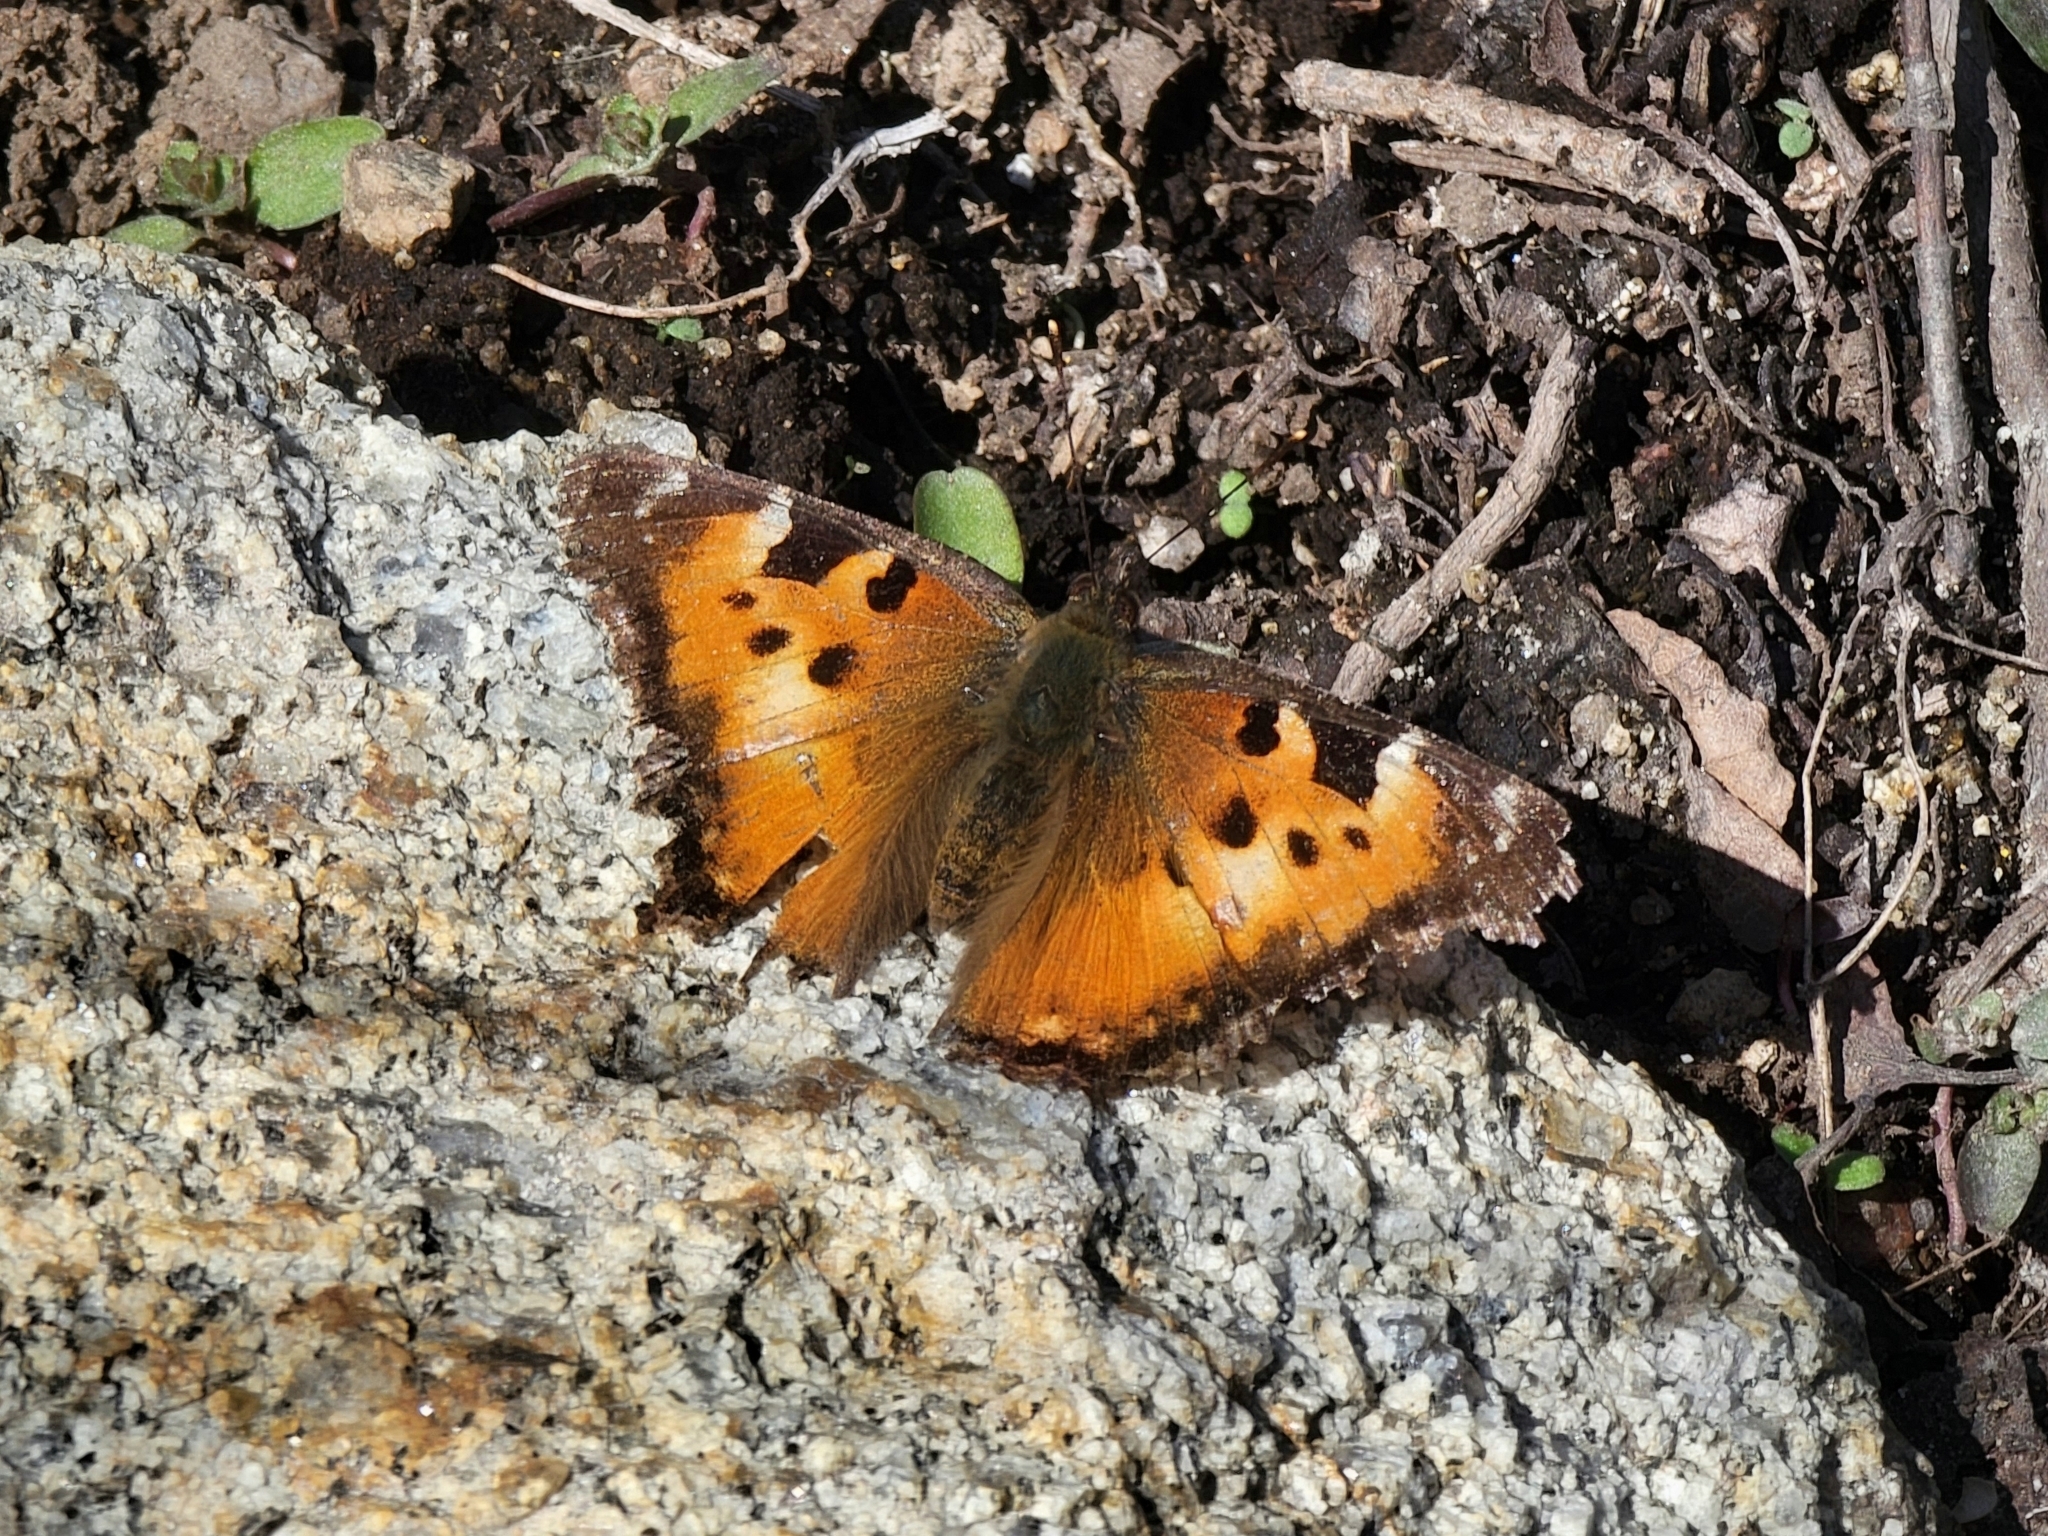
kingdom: Animalia
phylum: Arthropoda
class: Insecta
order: Lepidoptera
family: Nymphalidae
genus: Nymphalis
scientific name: Nymphalis californica
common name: California tortoiseshell
